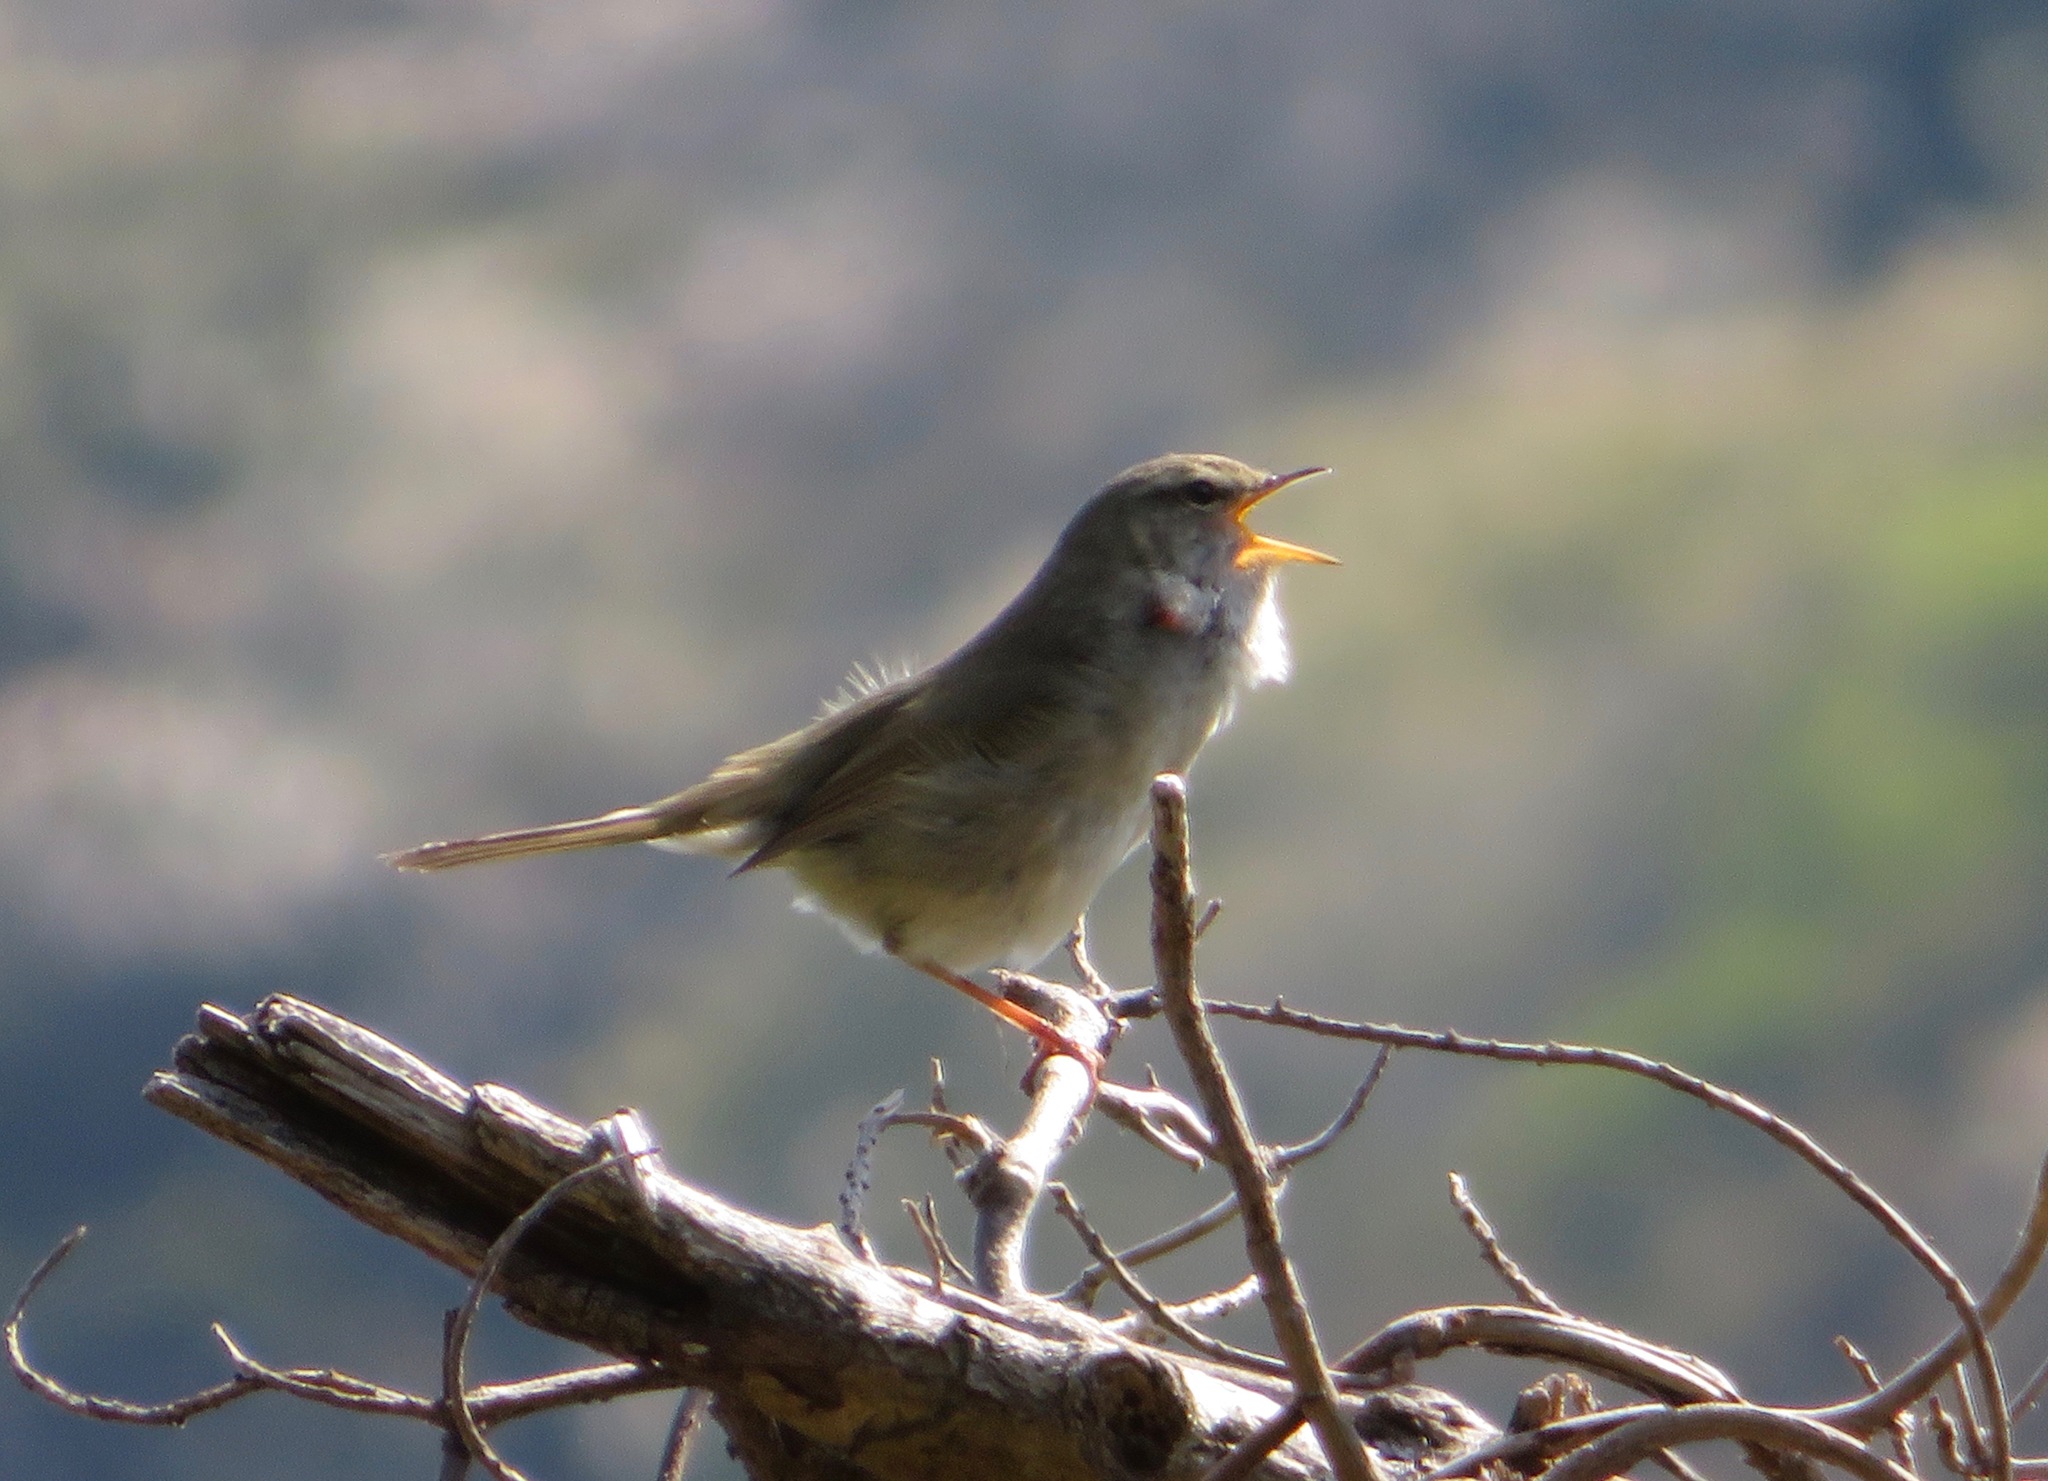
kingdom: Animalia
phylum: Chordata
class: Aves
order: Passeriformes
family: Cettiidae
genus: Horornis
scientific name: Horornis diphone
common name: Japanese bush warbler
